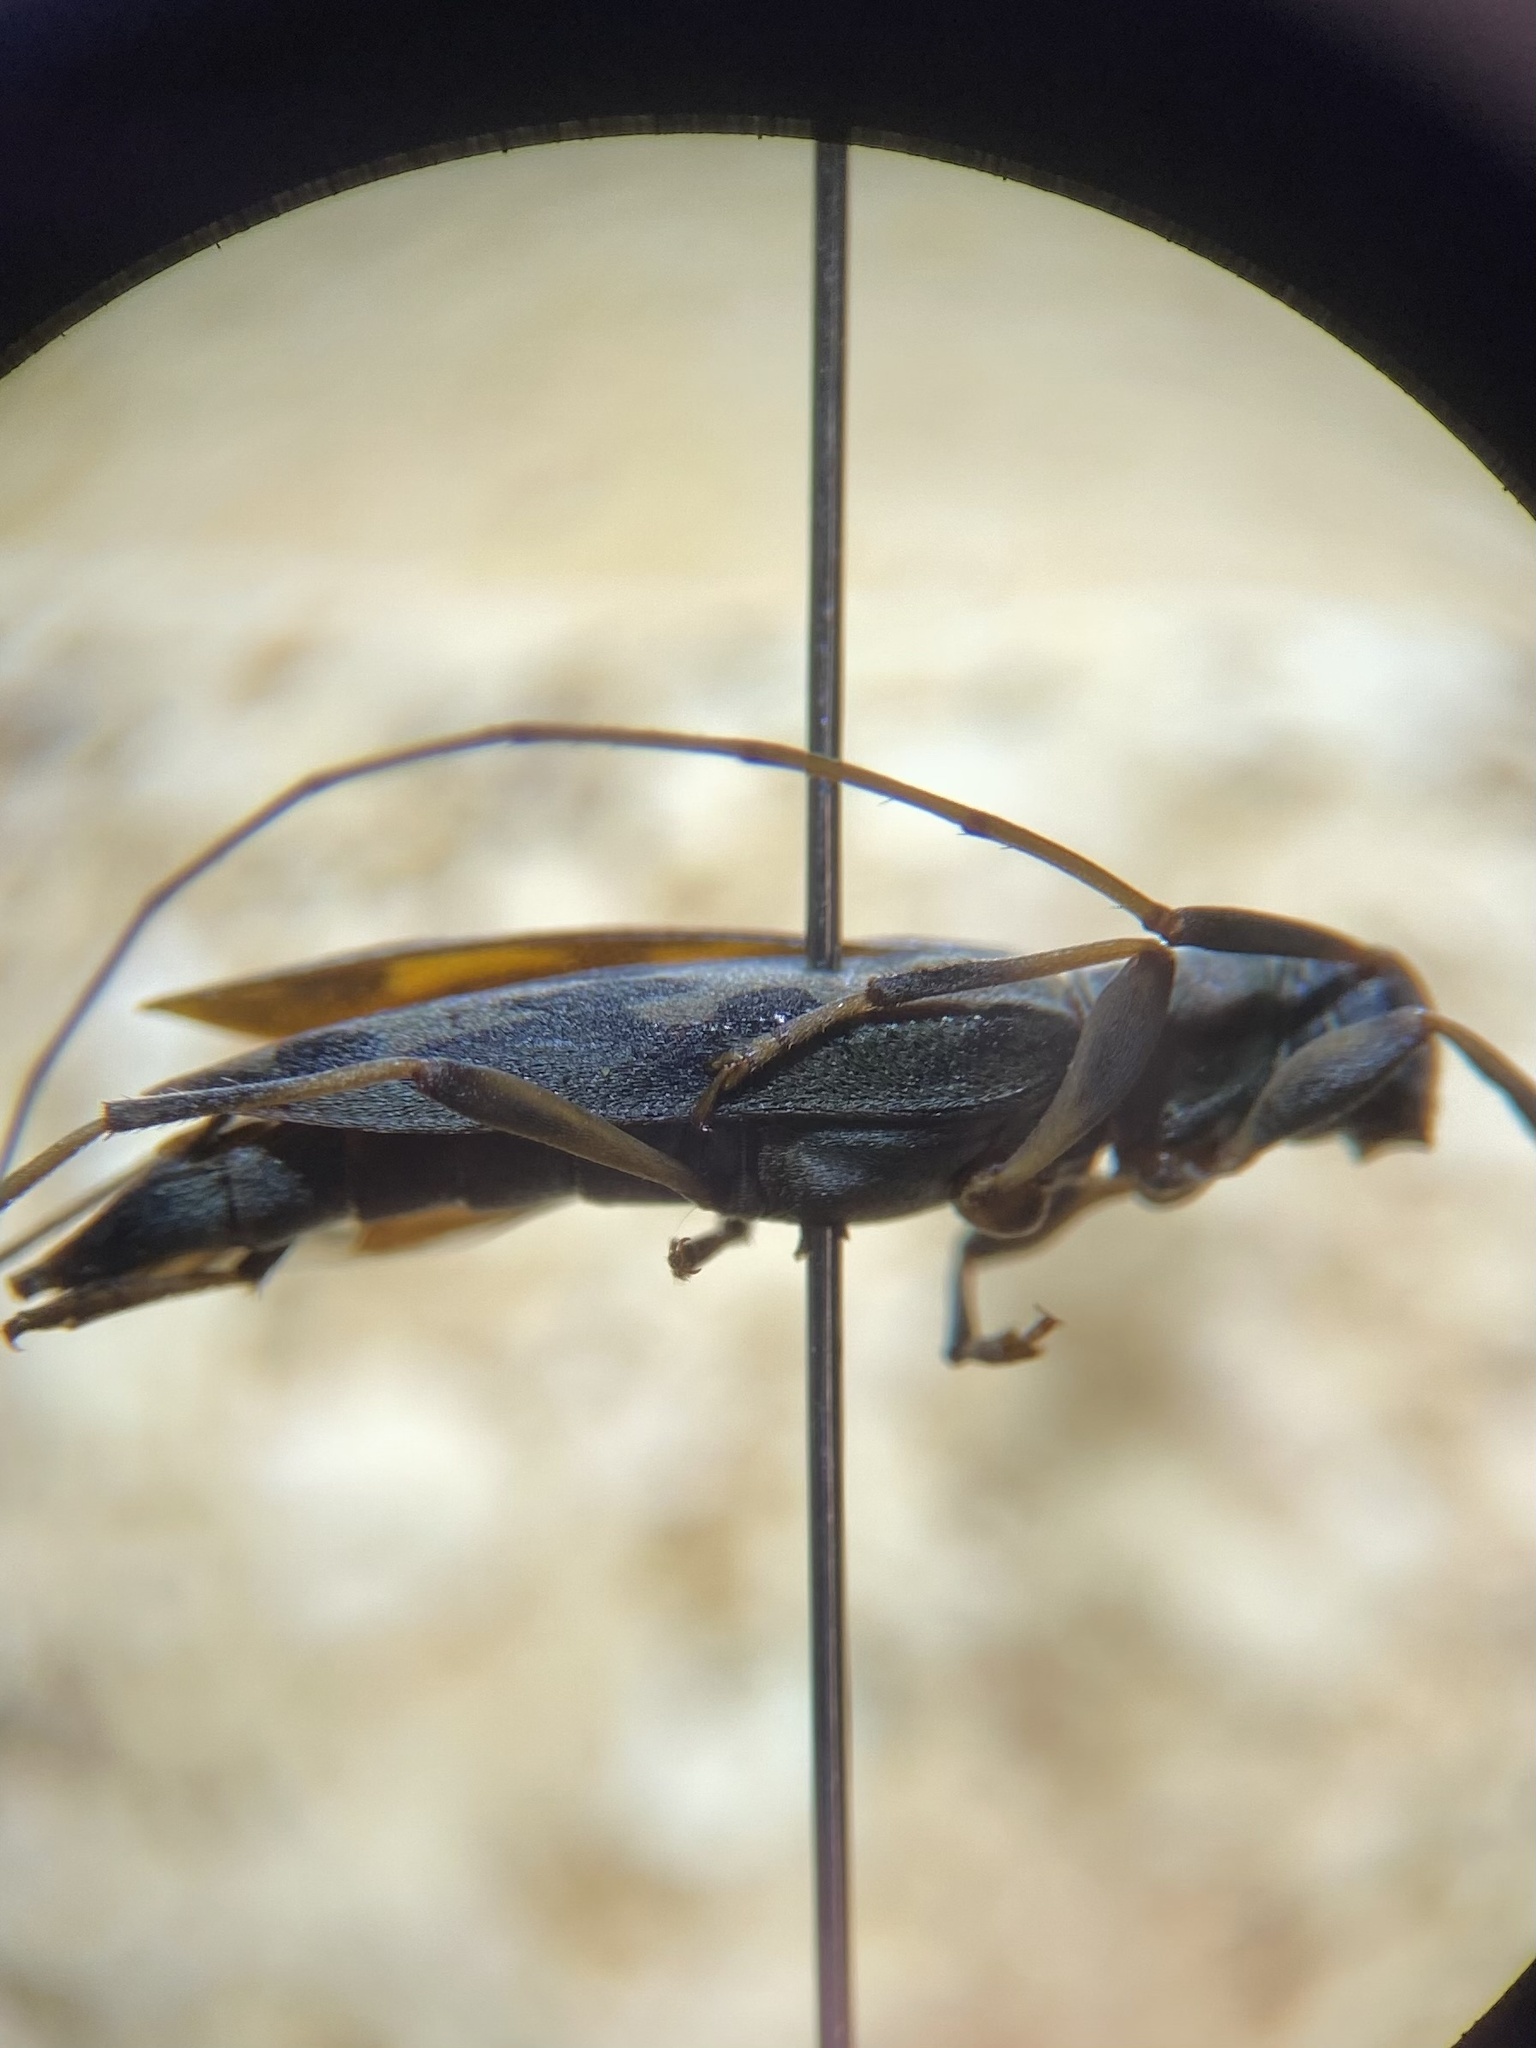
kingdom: Animalia
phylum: Arthropoda
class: Insecta
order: Coleoptera
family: Cerambycidae
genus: Lepturges
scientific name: Lepturges symmetricus
